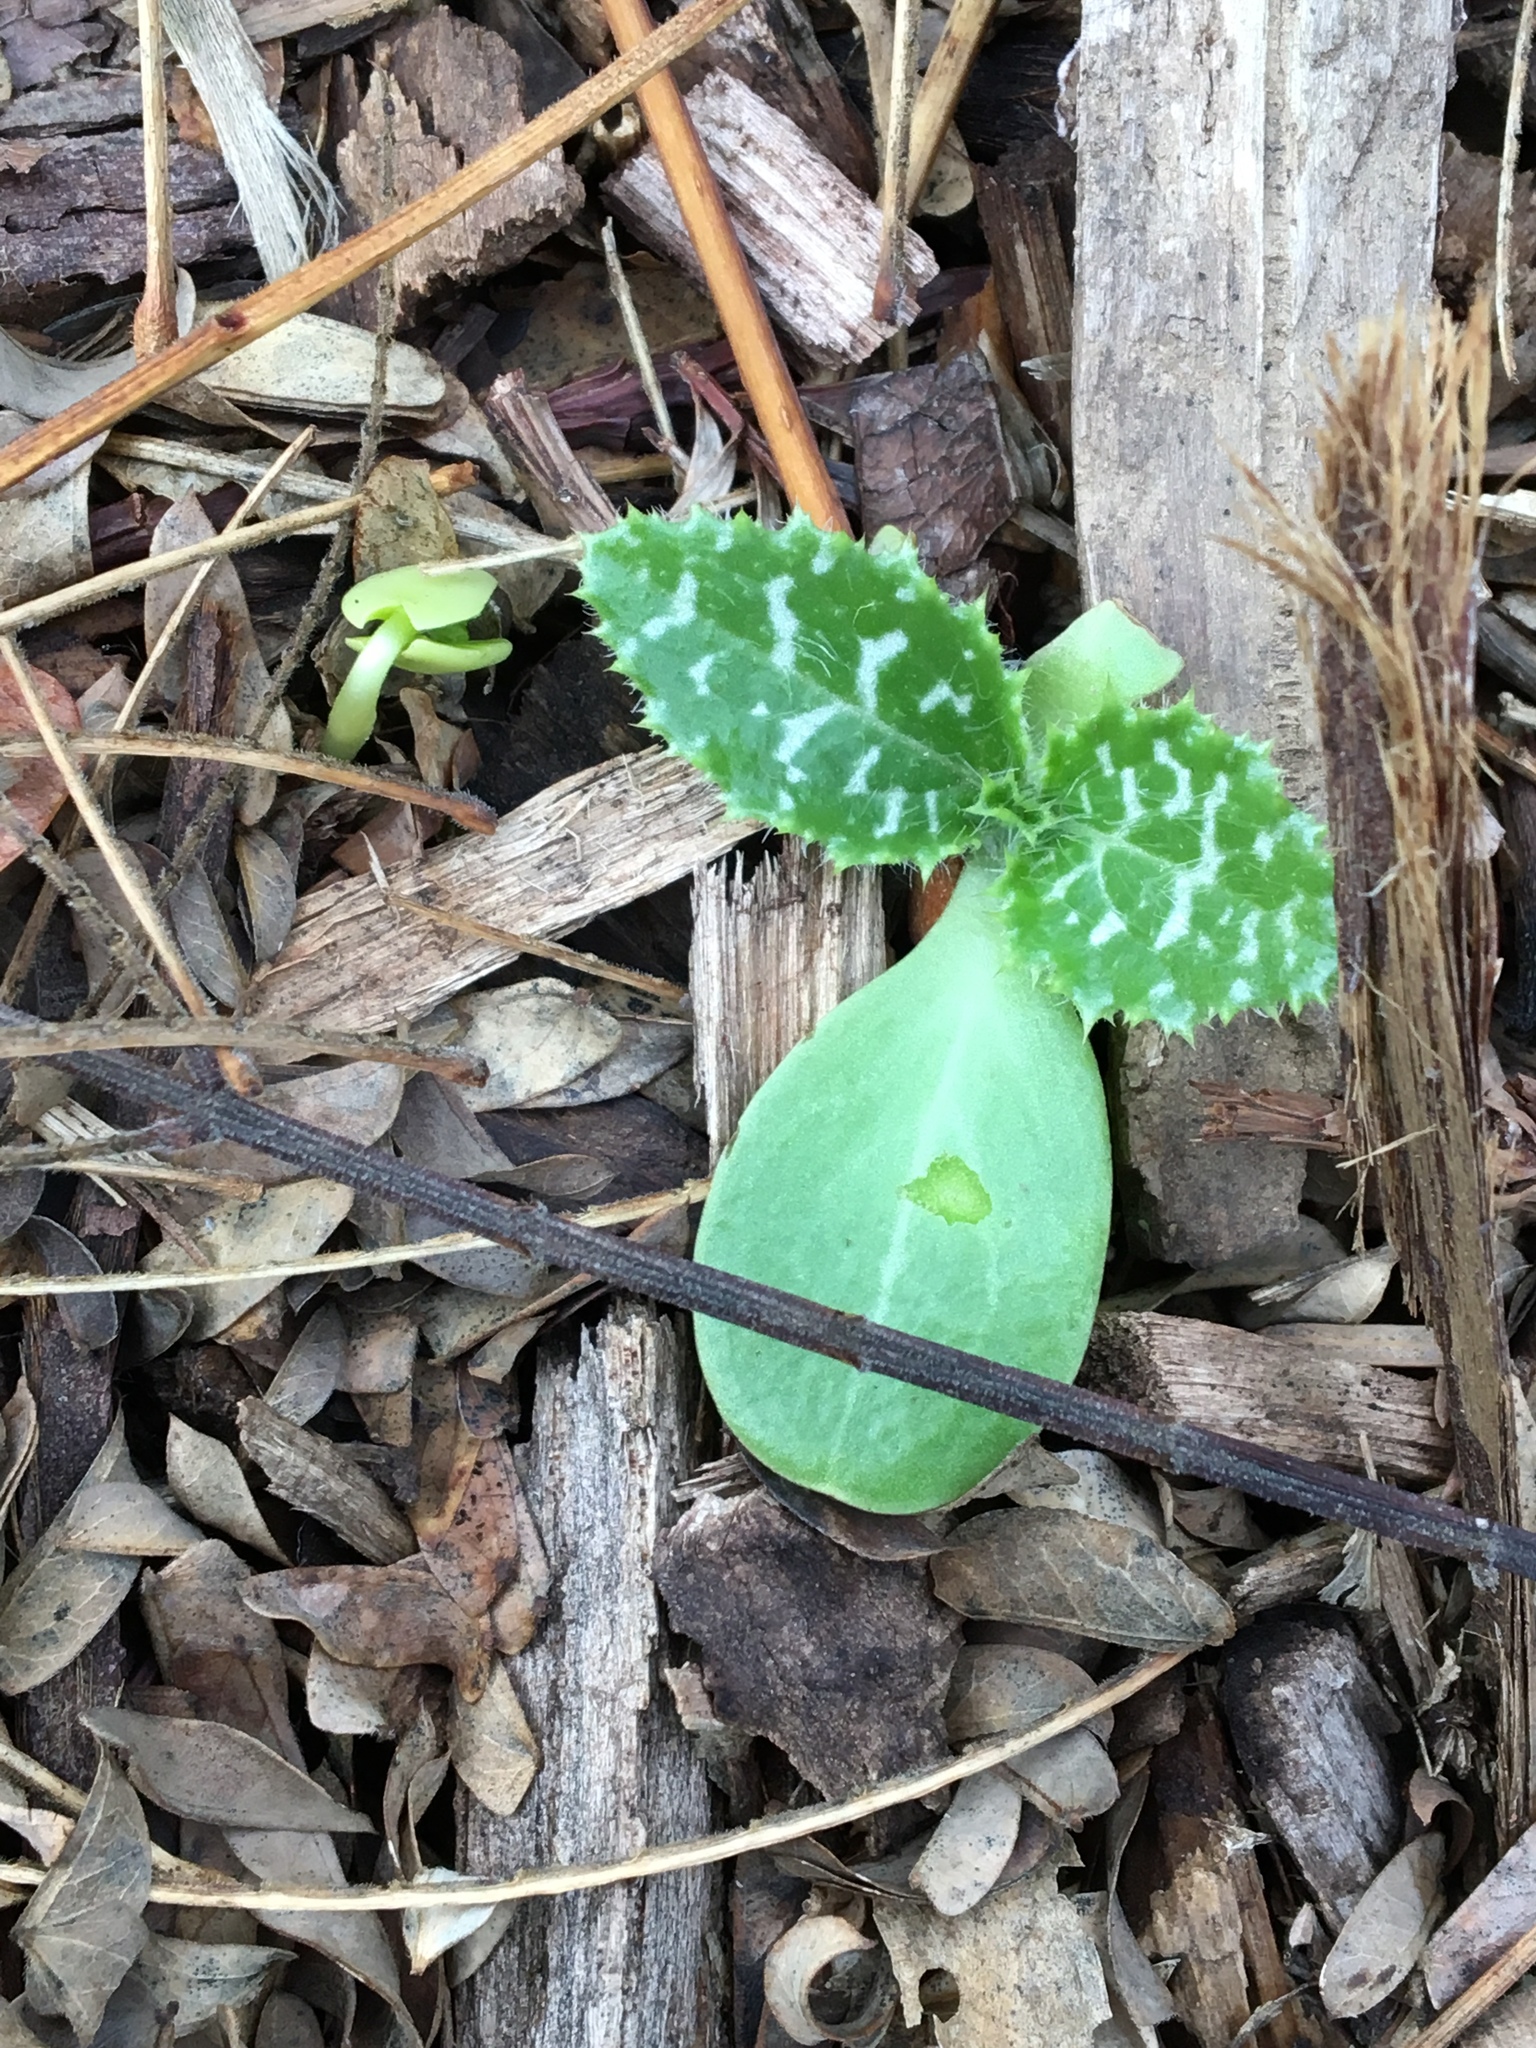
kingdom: Plantae
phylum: Tracheophyta
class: Magnoliopsida
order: Asterales
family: Asteraceae
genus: Silybum
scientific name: Silybum marianum
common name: Milk thistle
